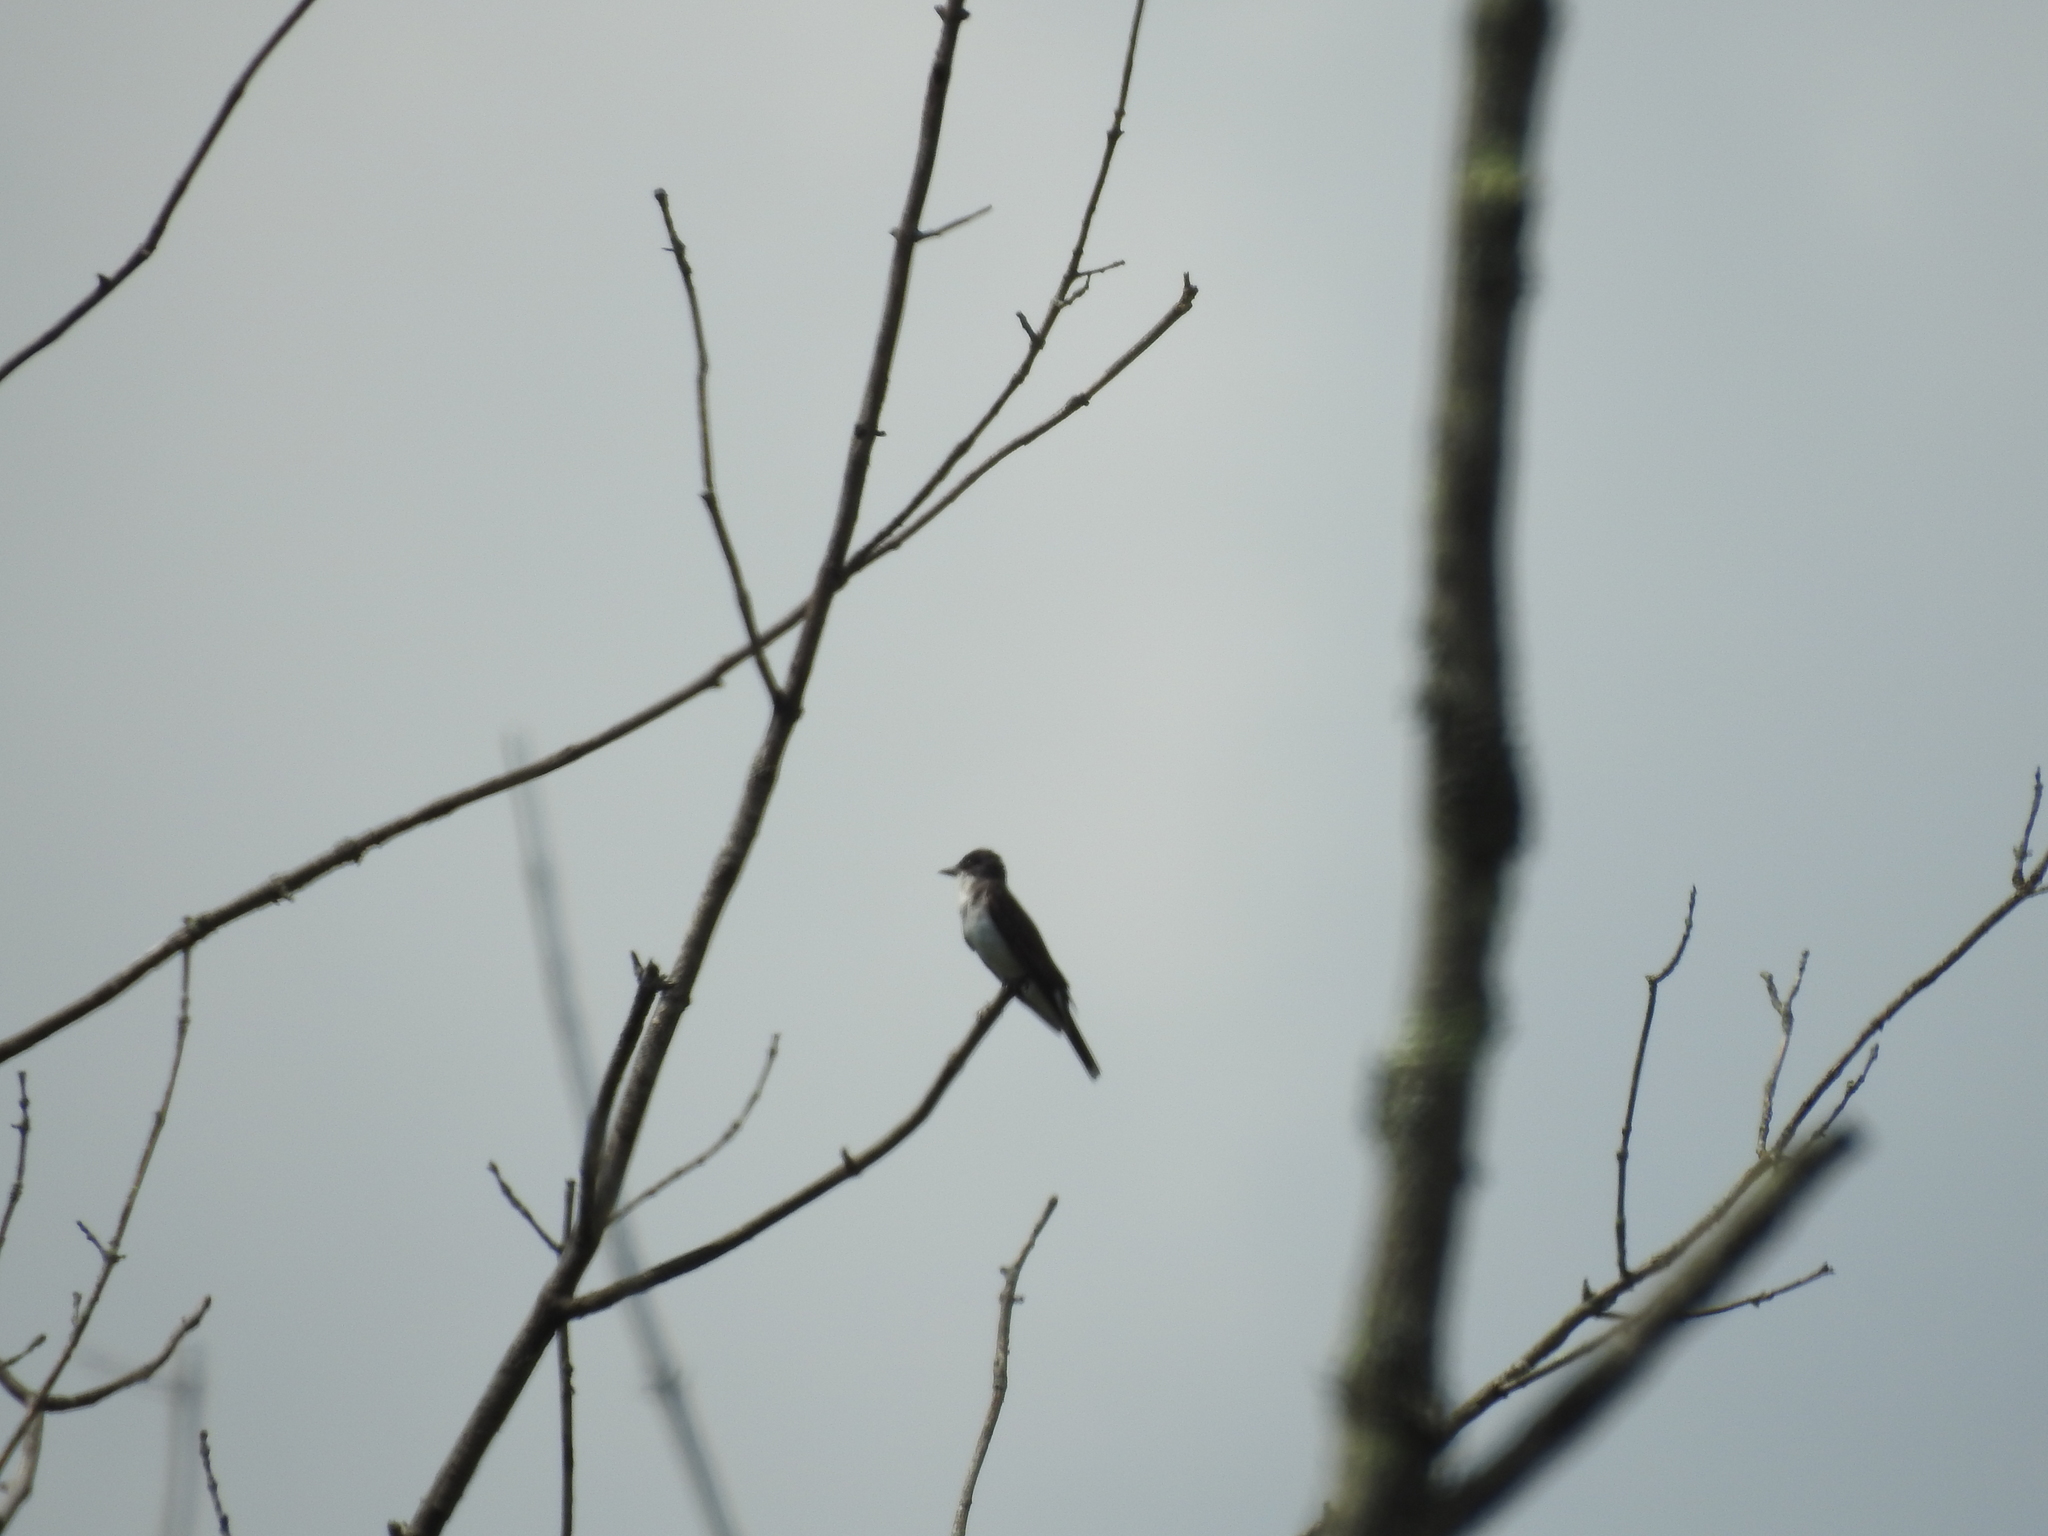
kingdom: Animalia
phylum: Chordata
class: Aves
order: Passeriformes
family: Tyrannidae
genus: Tyrannus
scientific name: Tyrannus tyrannus
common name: Eastern kingbird
